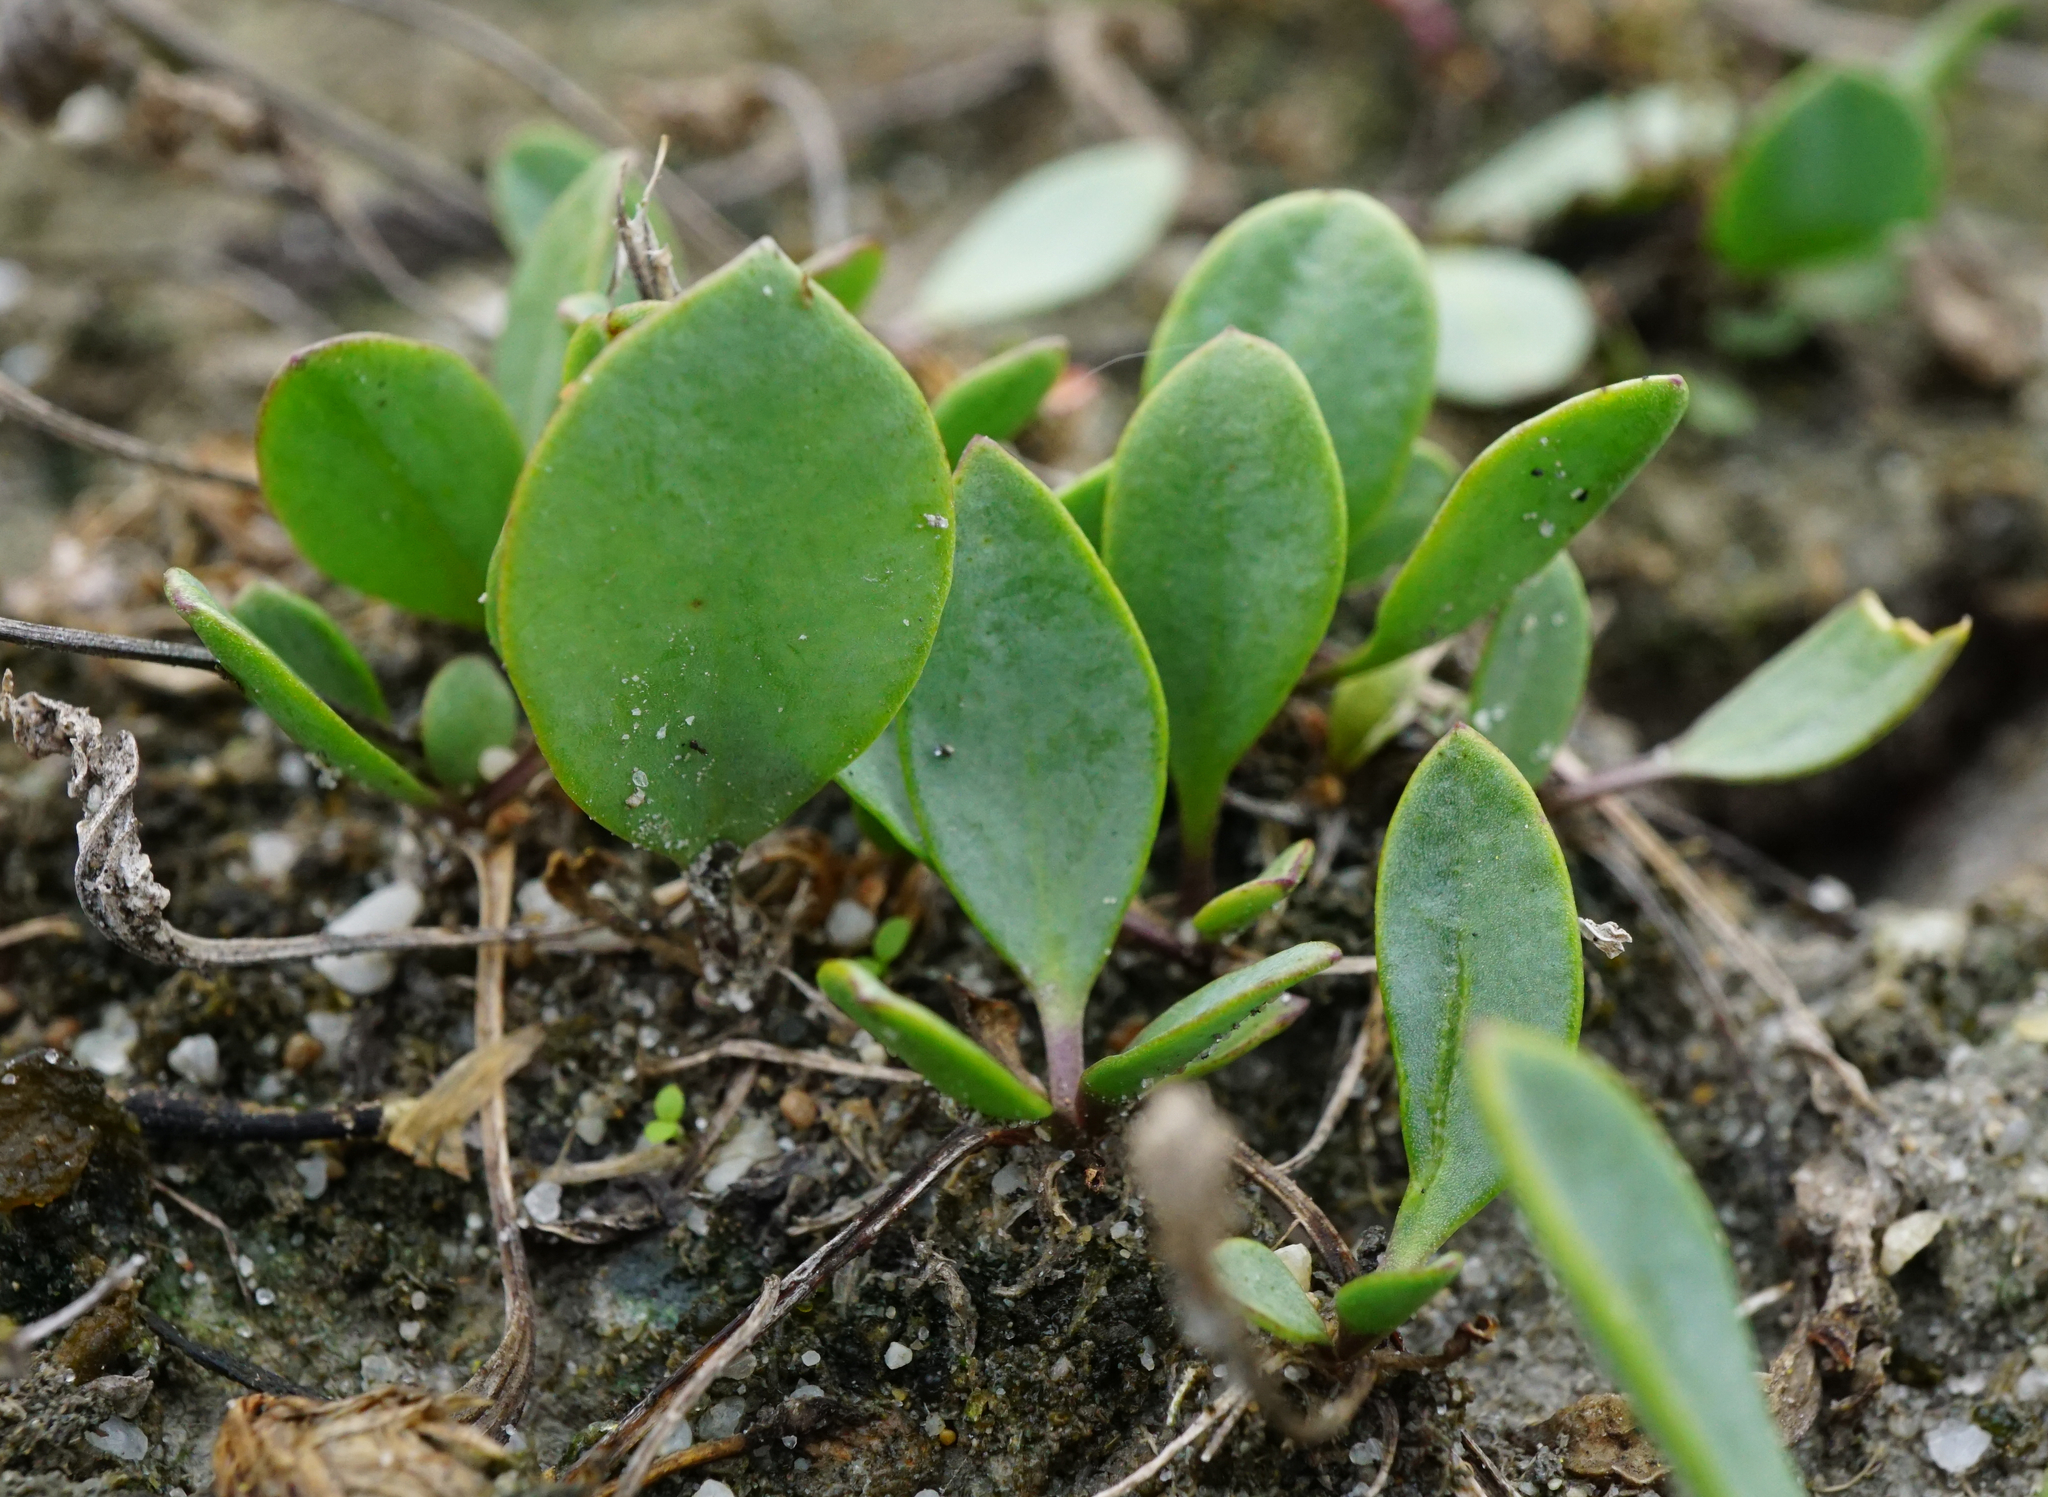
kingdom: Plantae
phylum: Tracheophyta
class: Magnoliopsida
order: Brassicales
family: Brassicaceae
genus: Lepidium
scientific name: Lepidium cartilagineum
